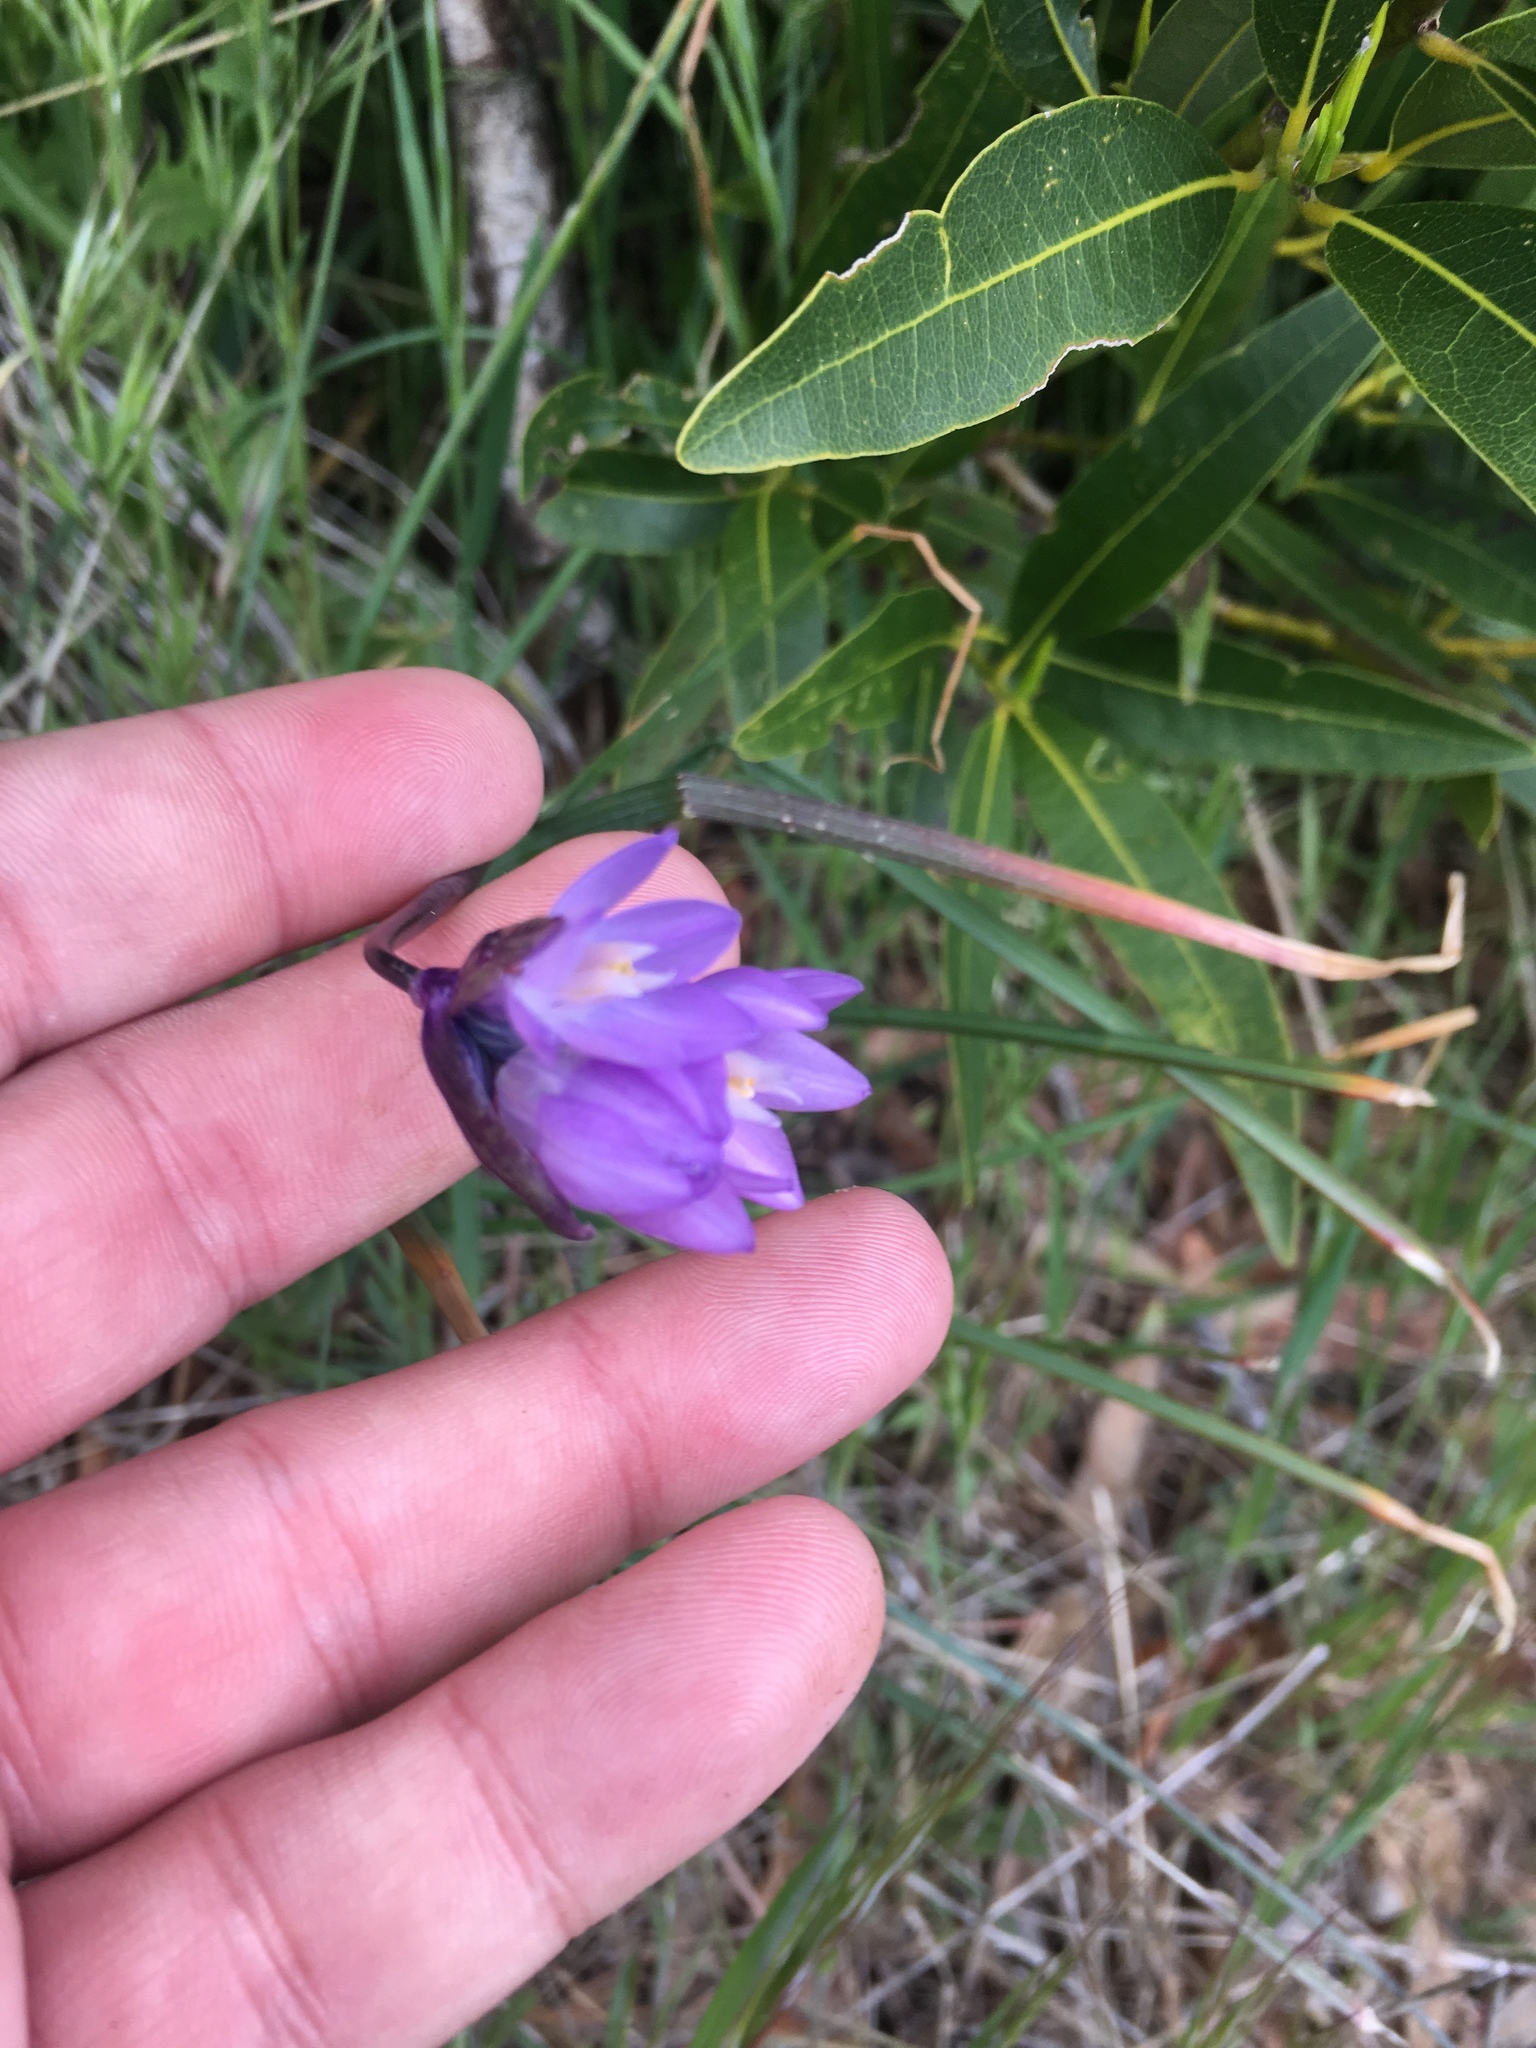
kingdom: Plantae
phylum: Tracheophyta
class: Liliopsida
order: Asparagales
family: Asparagaceae
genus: Dipterostemon
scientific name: Dipterostemon capitatus
